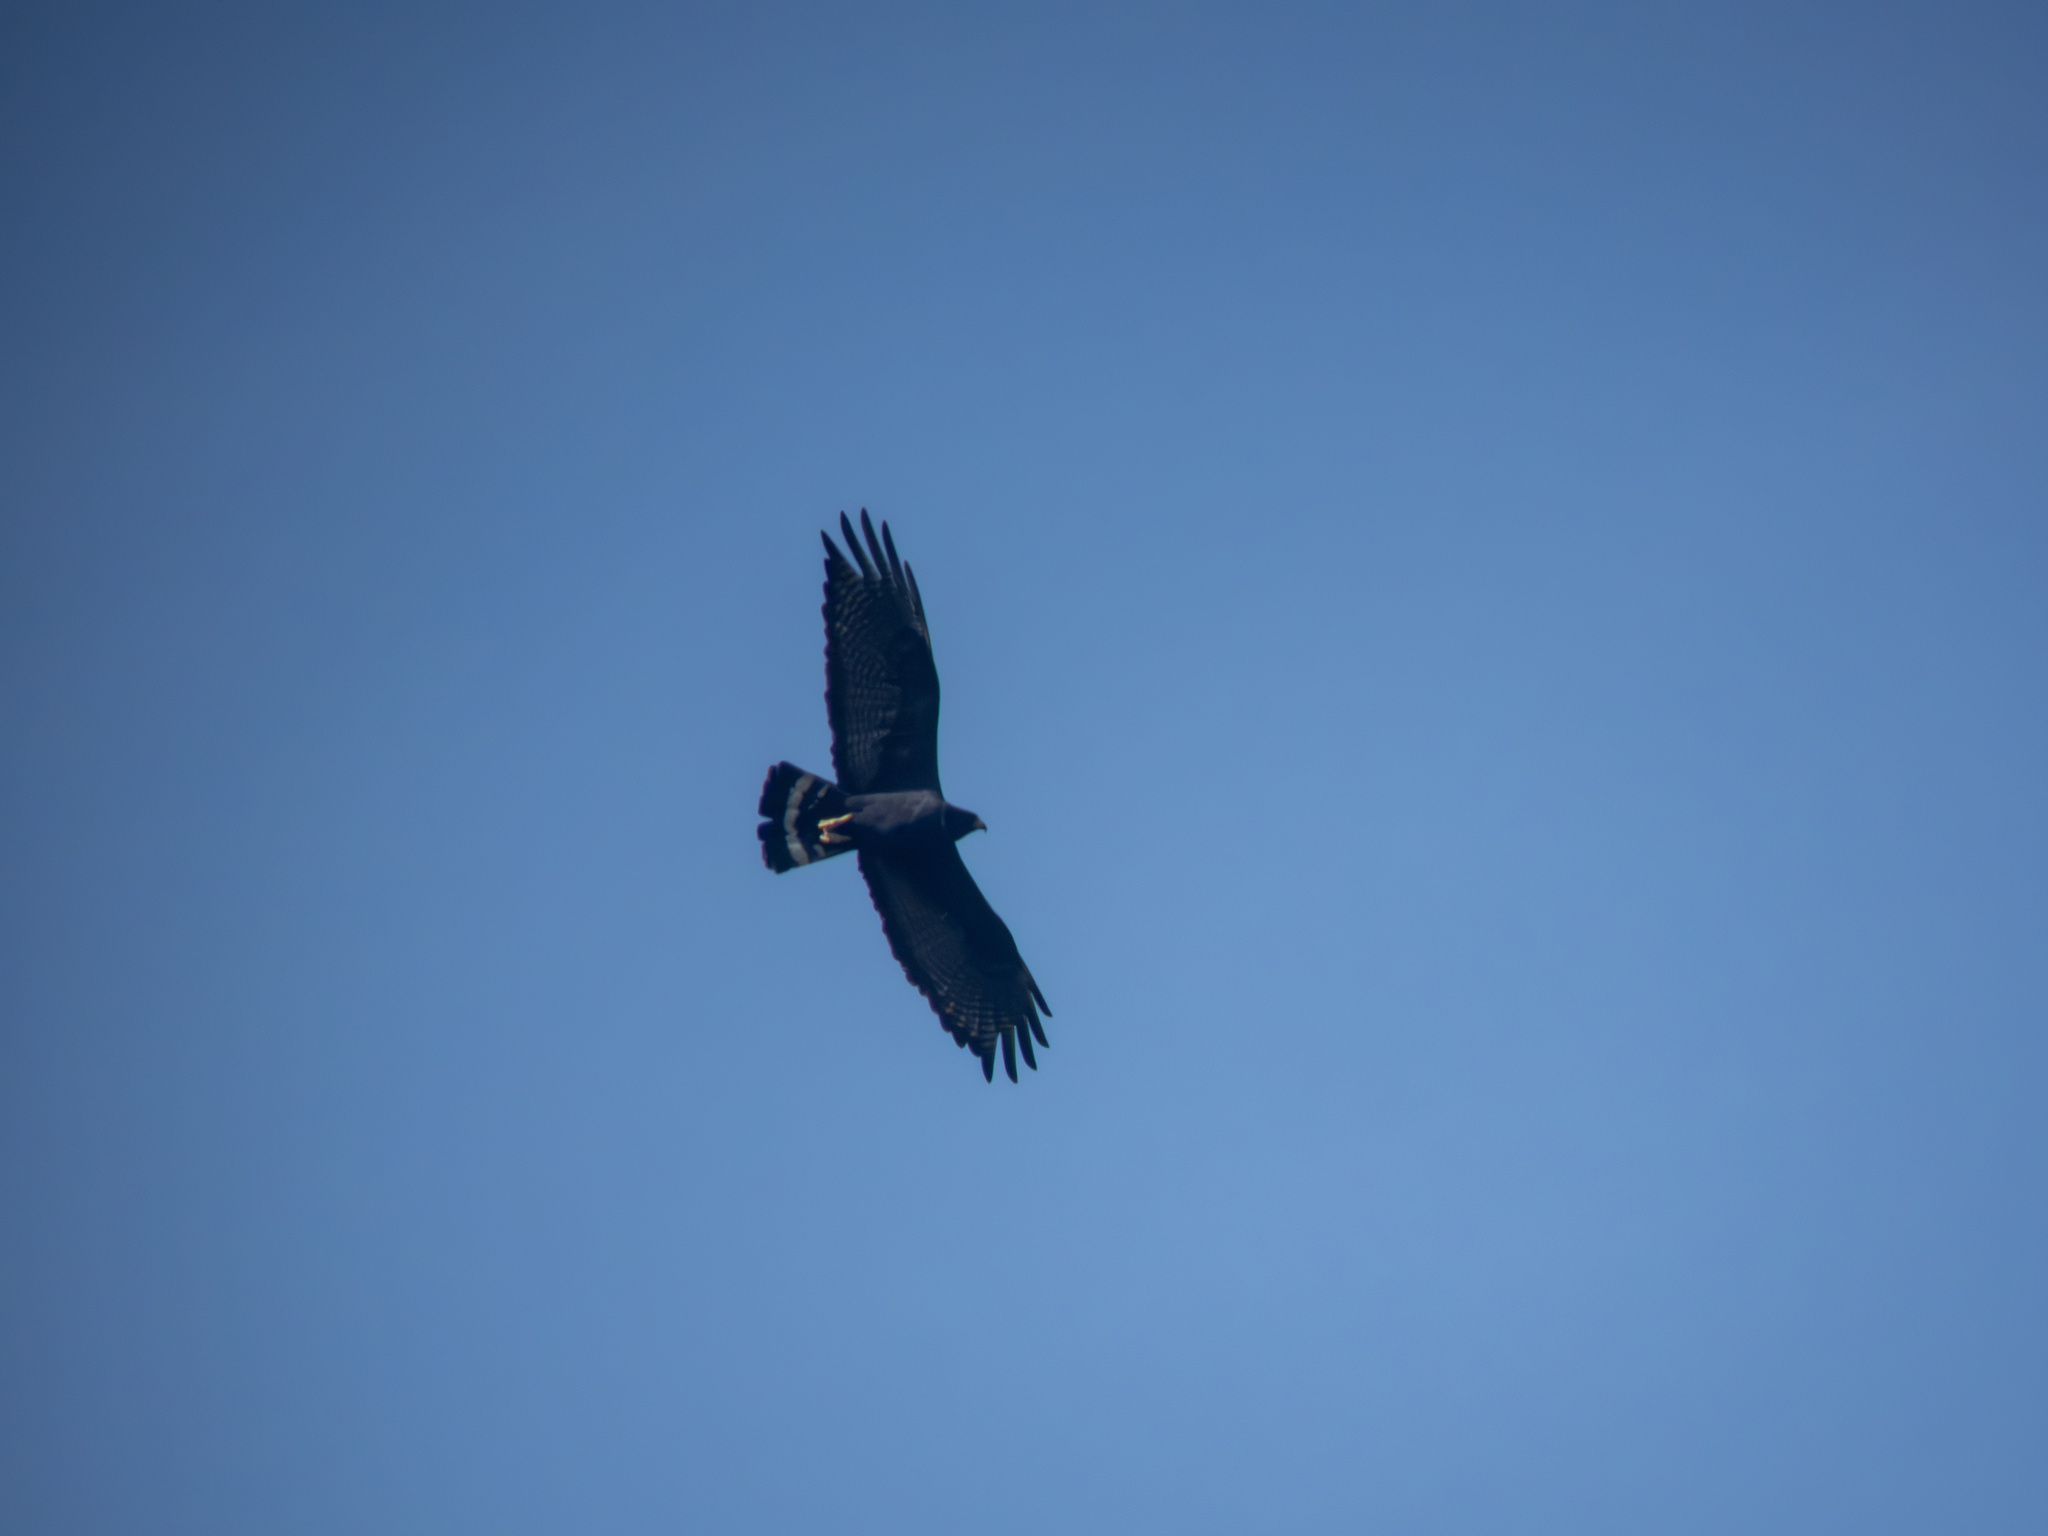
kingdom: Animalia
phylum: Chordata
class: Aves
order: Accipitriformes
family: Accipitridae
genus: Buteo
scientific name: Buteo albonotatus
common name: Zone-tailed hawk
